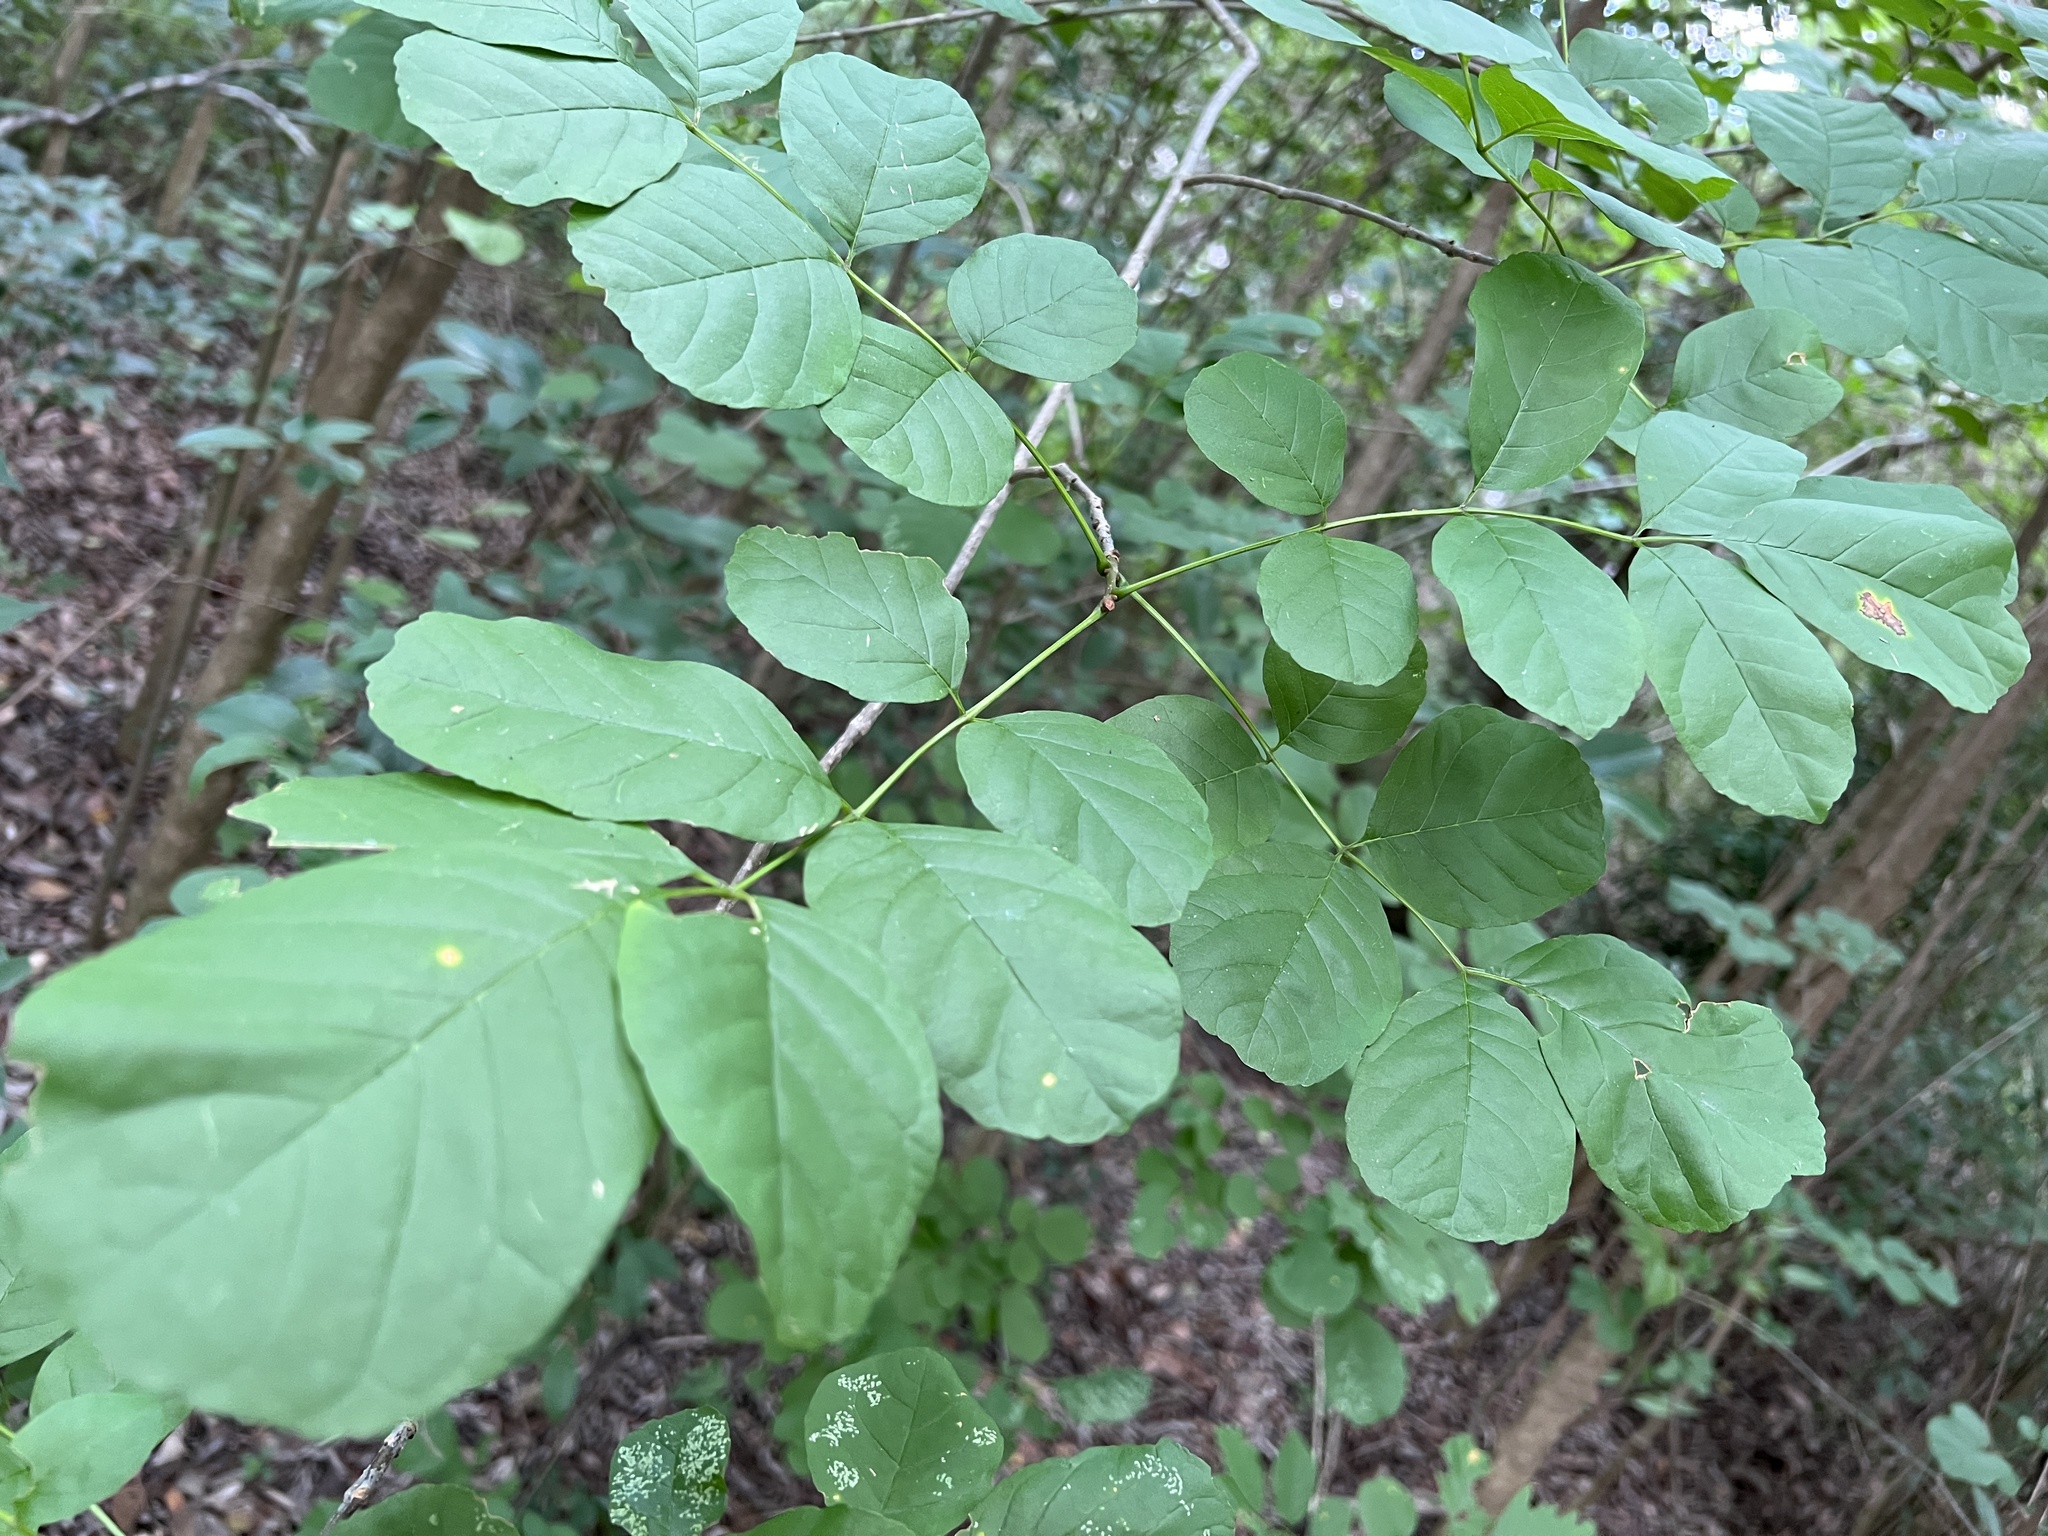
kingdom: Plantae
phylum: Tracheophyta
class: Magnoliopsida
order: Lamiales
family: Oleaceae
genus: Fraxinus
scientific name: Fraxinus albicans
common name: Texas ash
